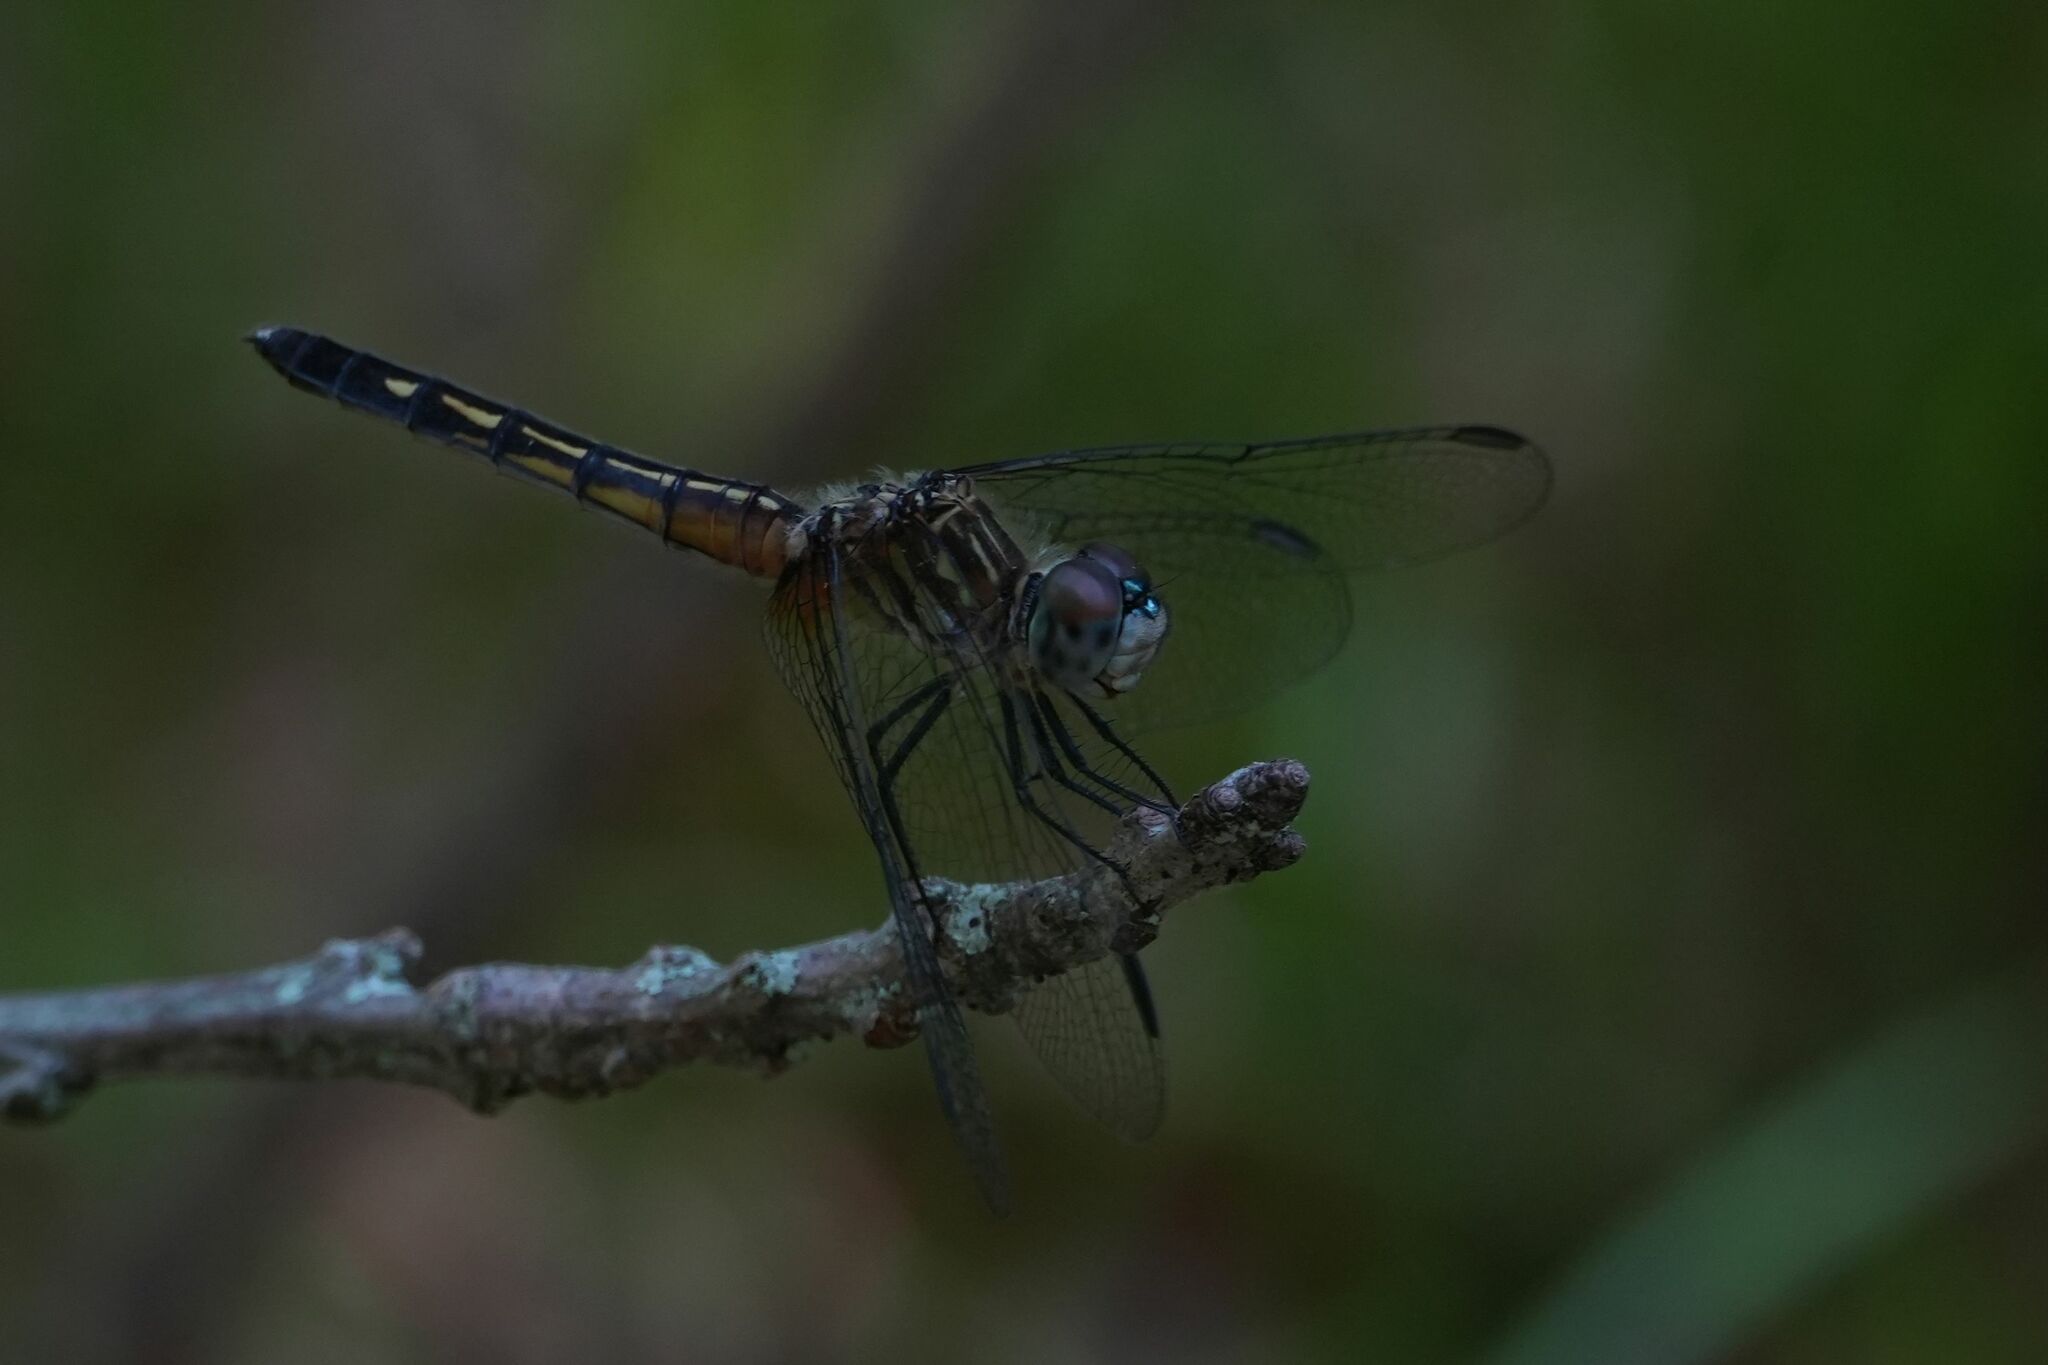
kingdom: Animalia
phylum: Arthropoda
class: Insecta
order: Odonata
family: Libellulidae
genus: Pachydiplax
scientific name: Pachydiplax longipennis
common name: Blue dasher
